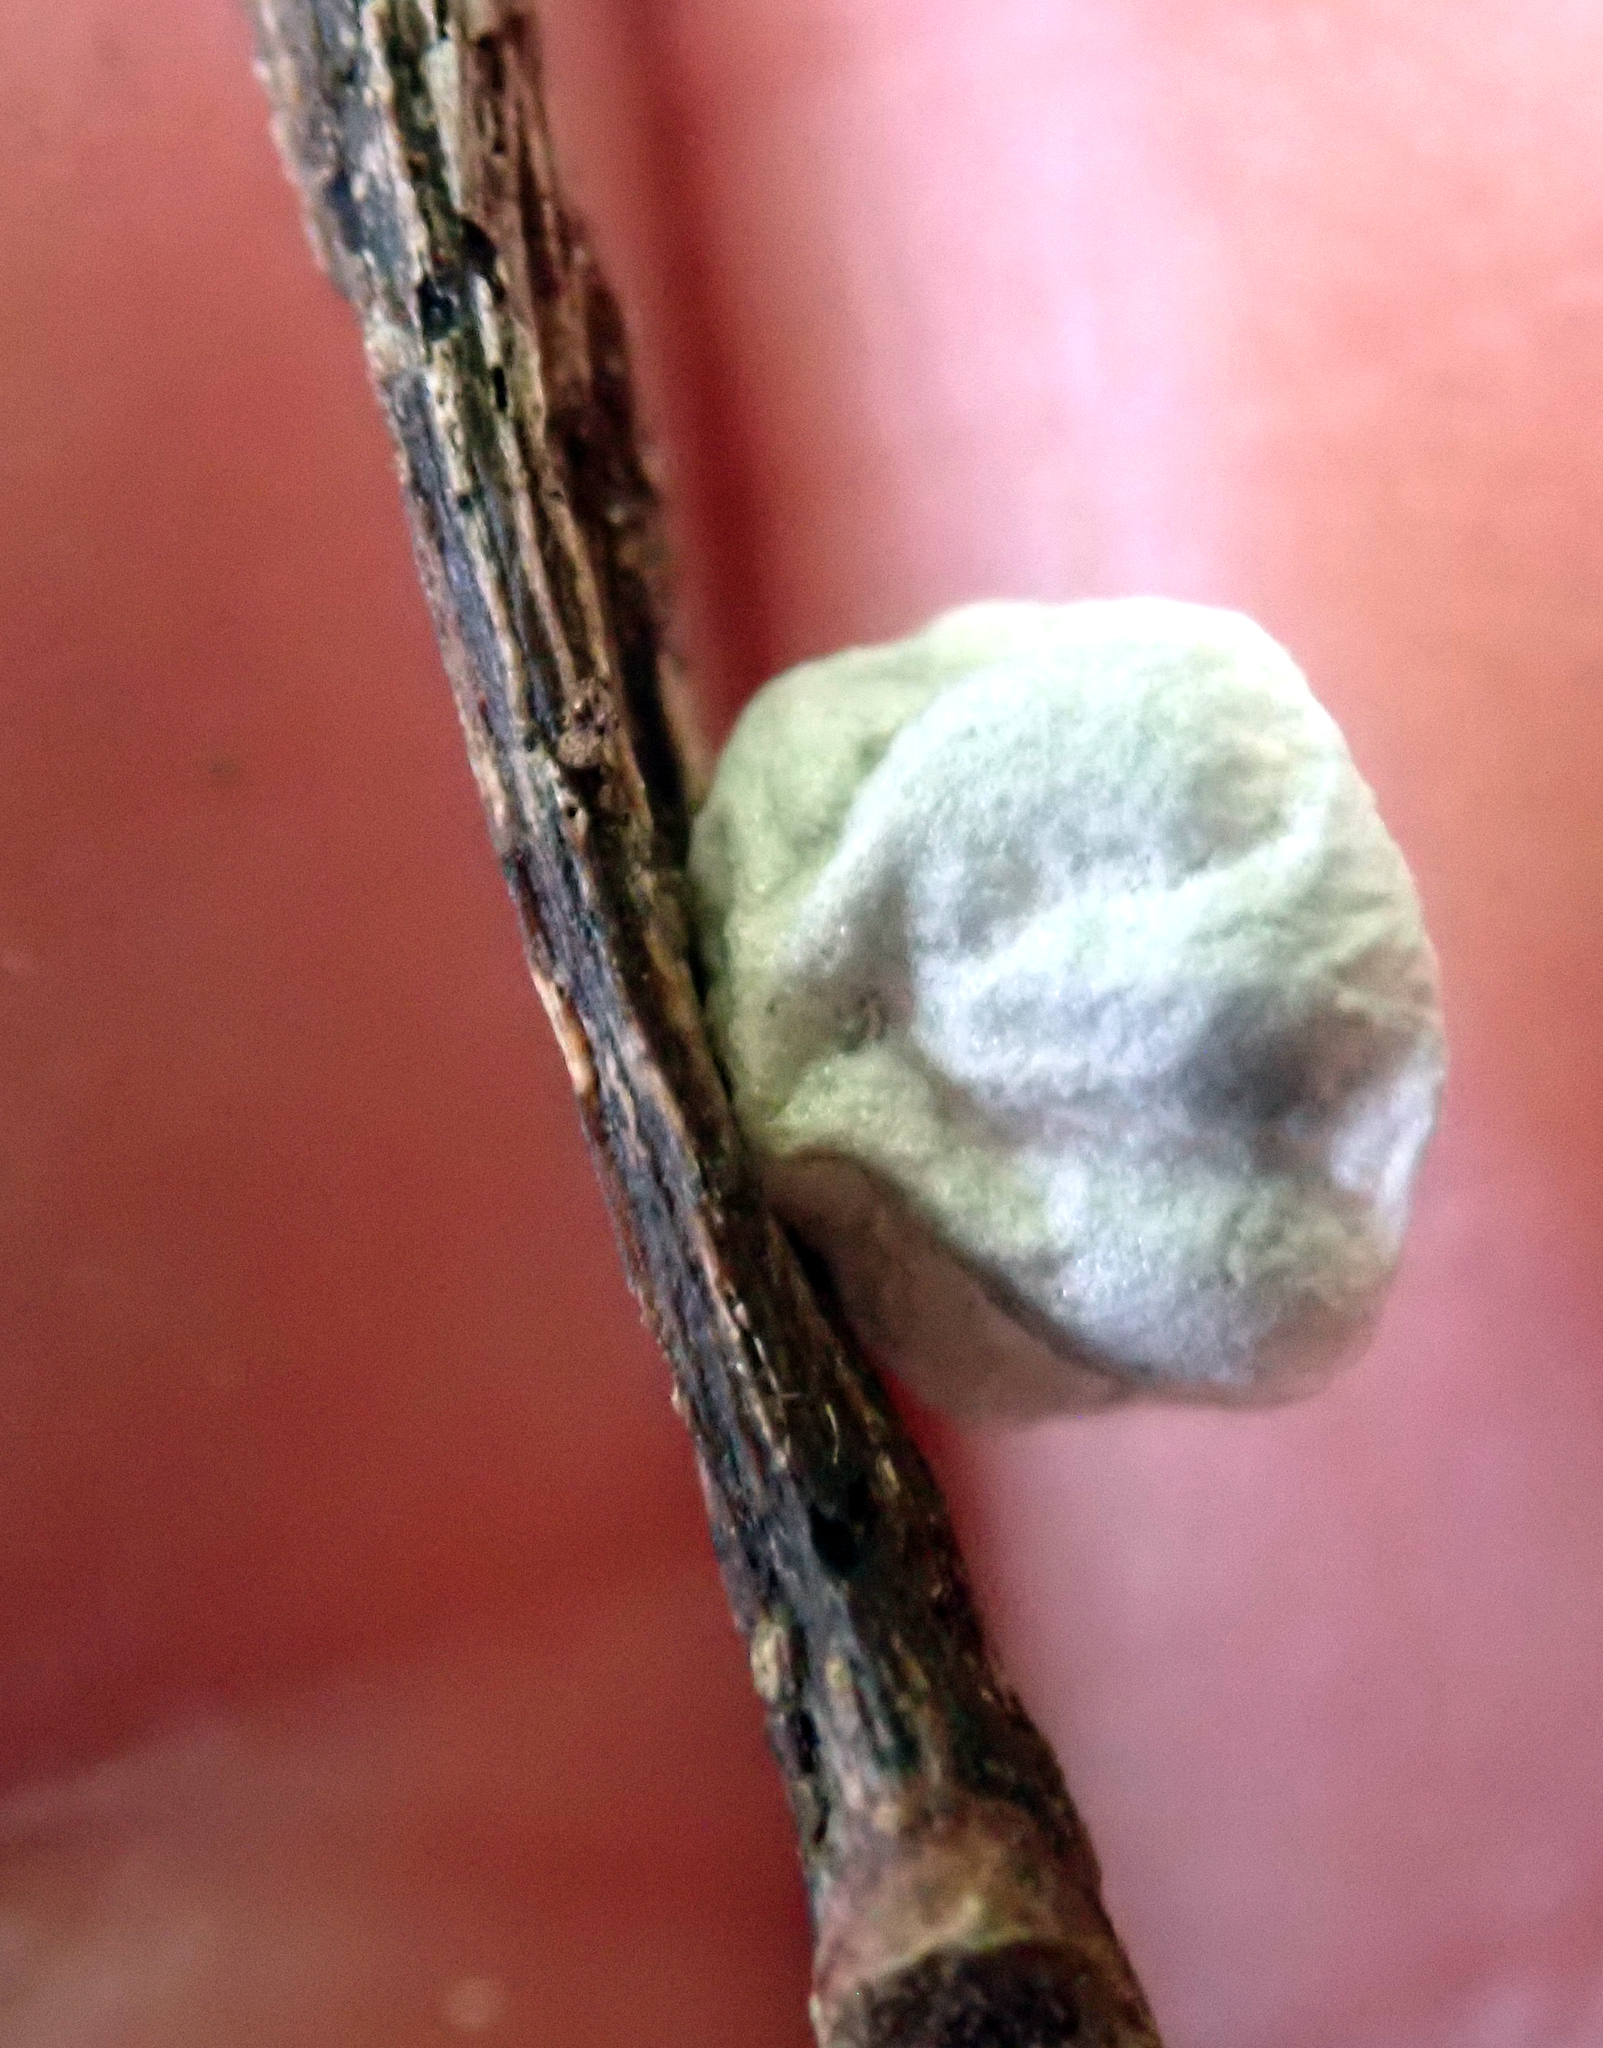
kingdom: Fungi
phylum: Basidiomycota
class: Agaricomycetes
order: Agaricales
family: Marasmiaceae
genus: Campanella
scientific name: Campanella tristis
